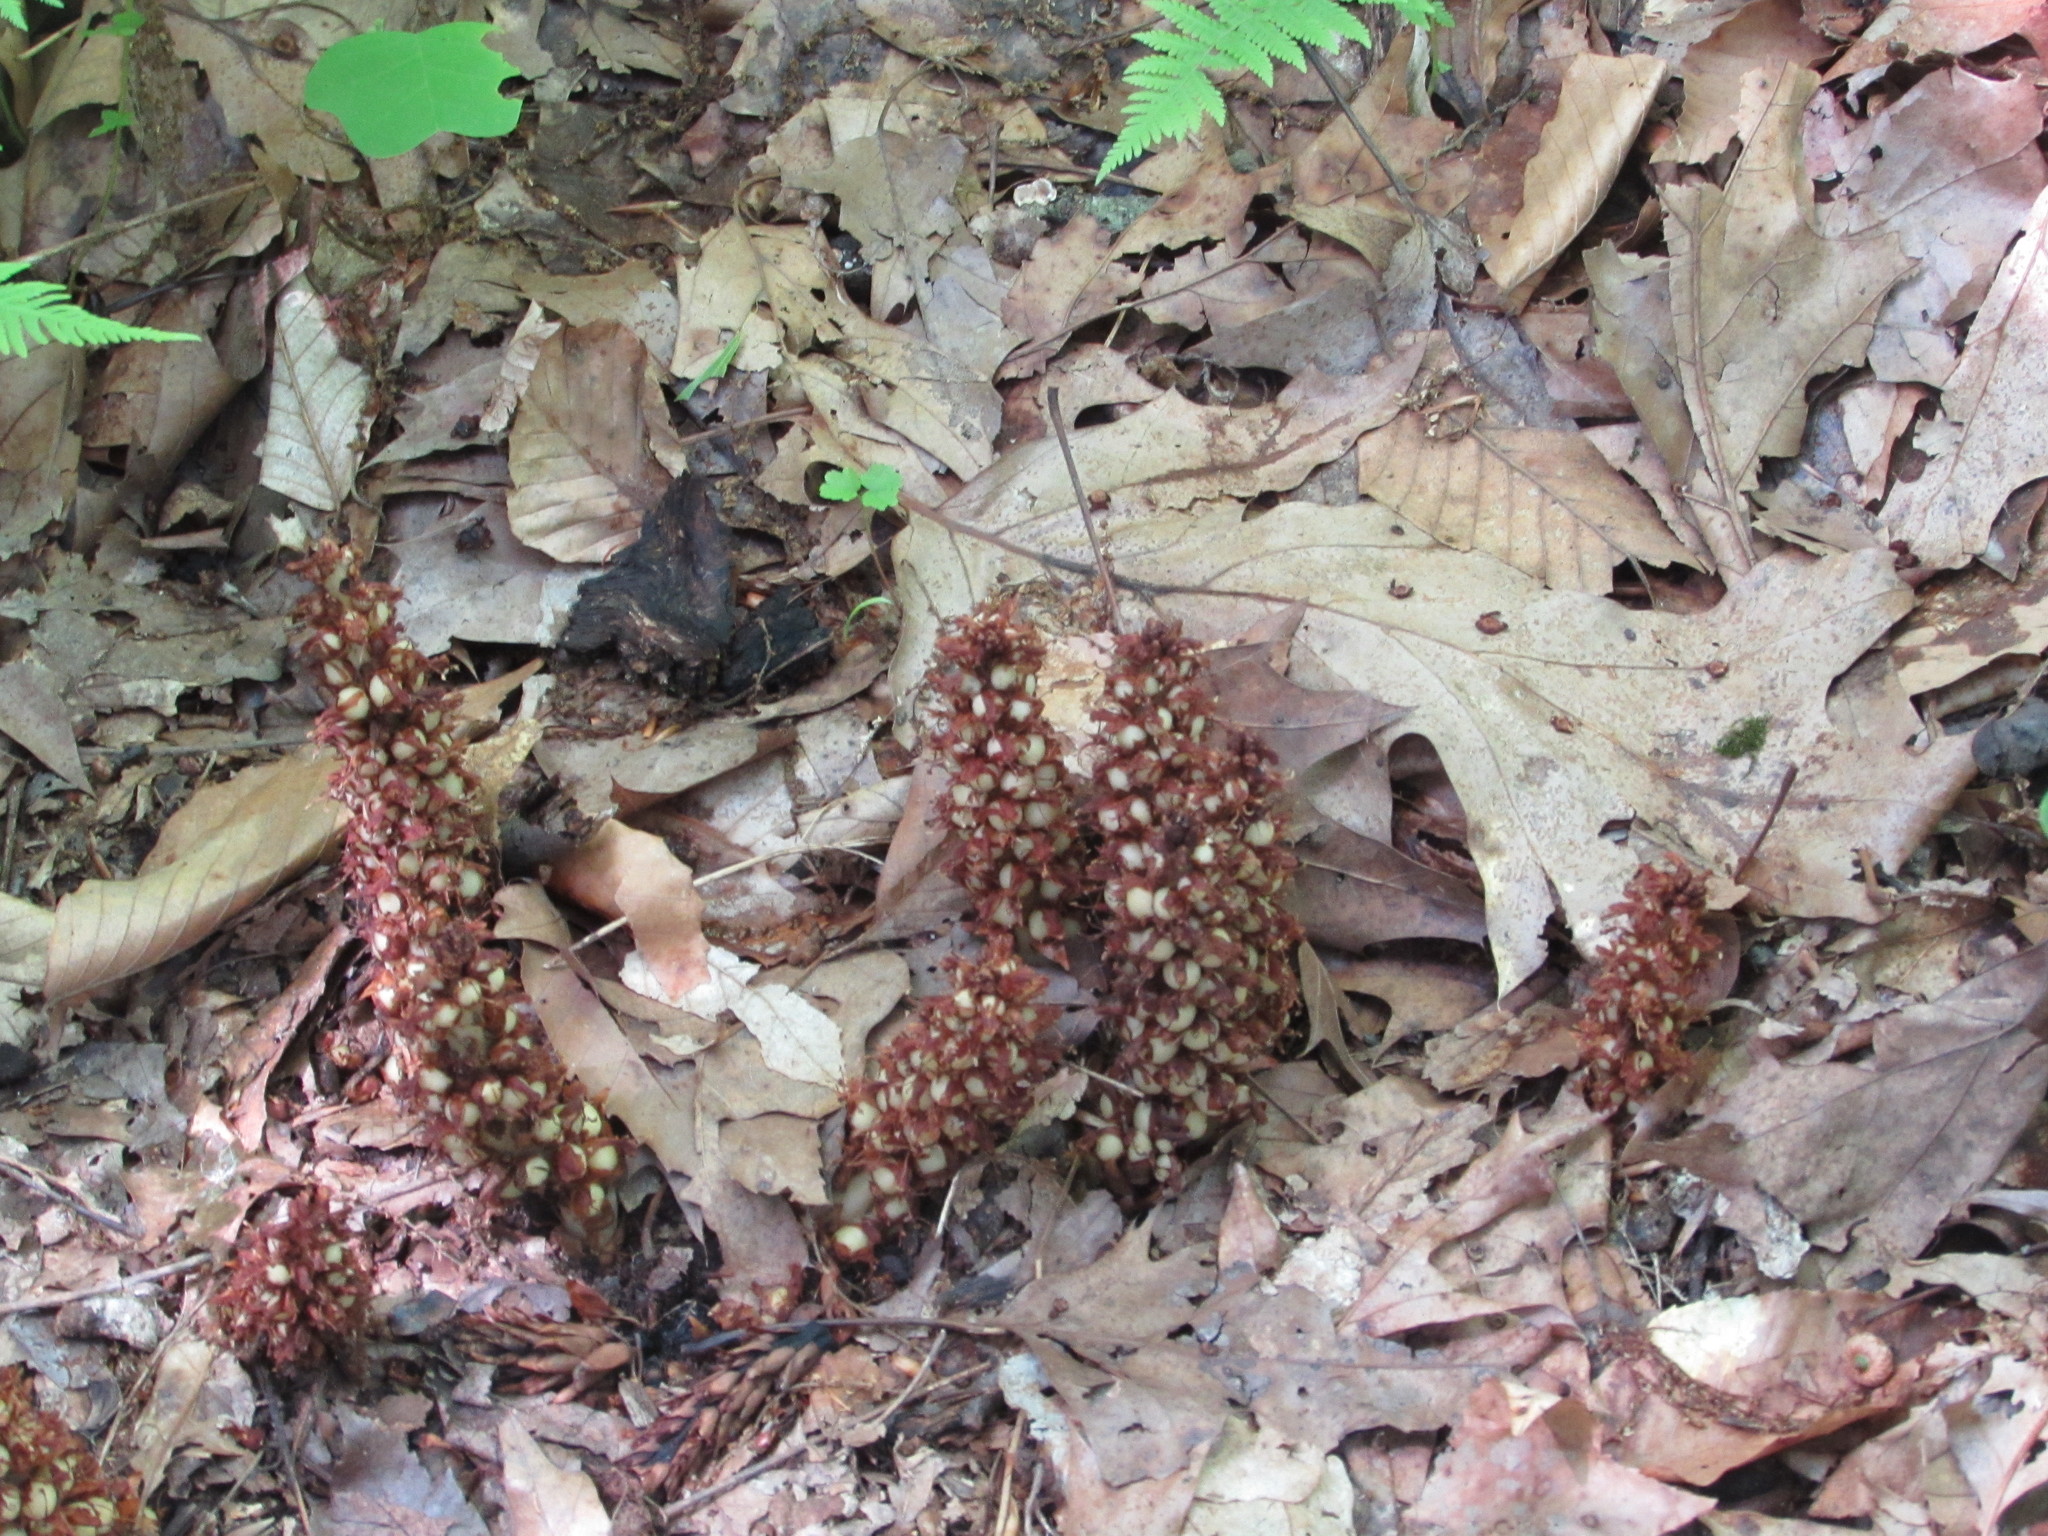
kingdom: Plantae
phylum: Tracheophyta
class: Magnoliopsida
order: Lamiales
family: Orobanchaceae
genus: Conopholis
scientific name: Conopholis americana
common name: American cancer-root
